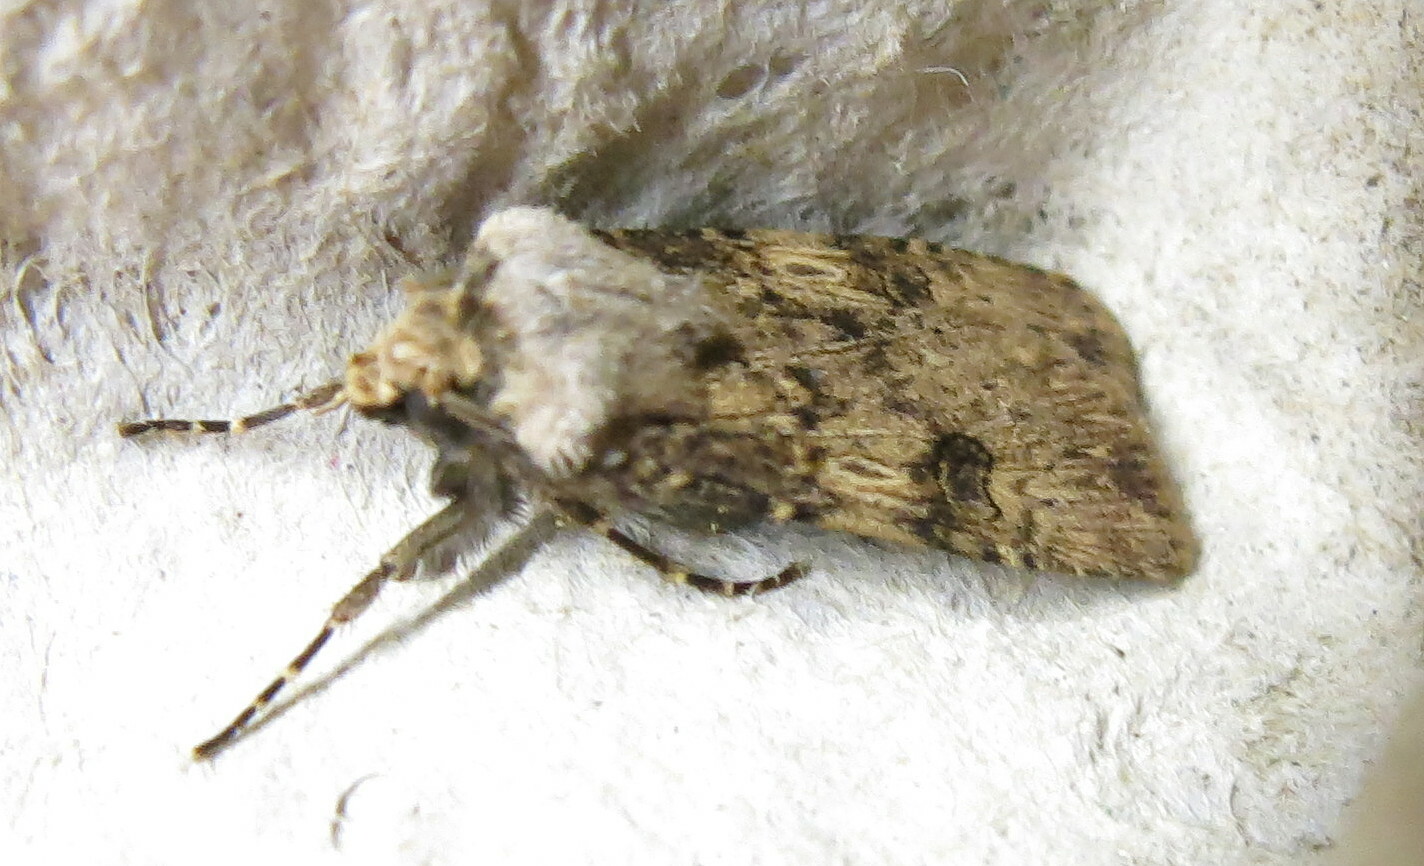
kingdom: Animalia
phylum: Arthropoda
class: Insecta
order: Lepidoptera
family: Noctuidae
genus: Agrotis
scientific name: Agrotis puta
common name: Shuttle-shaped dart
